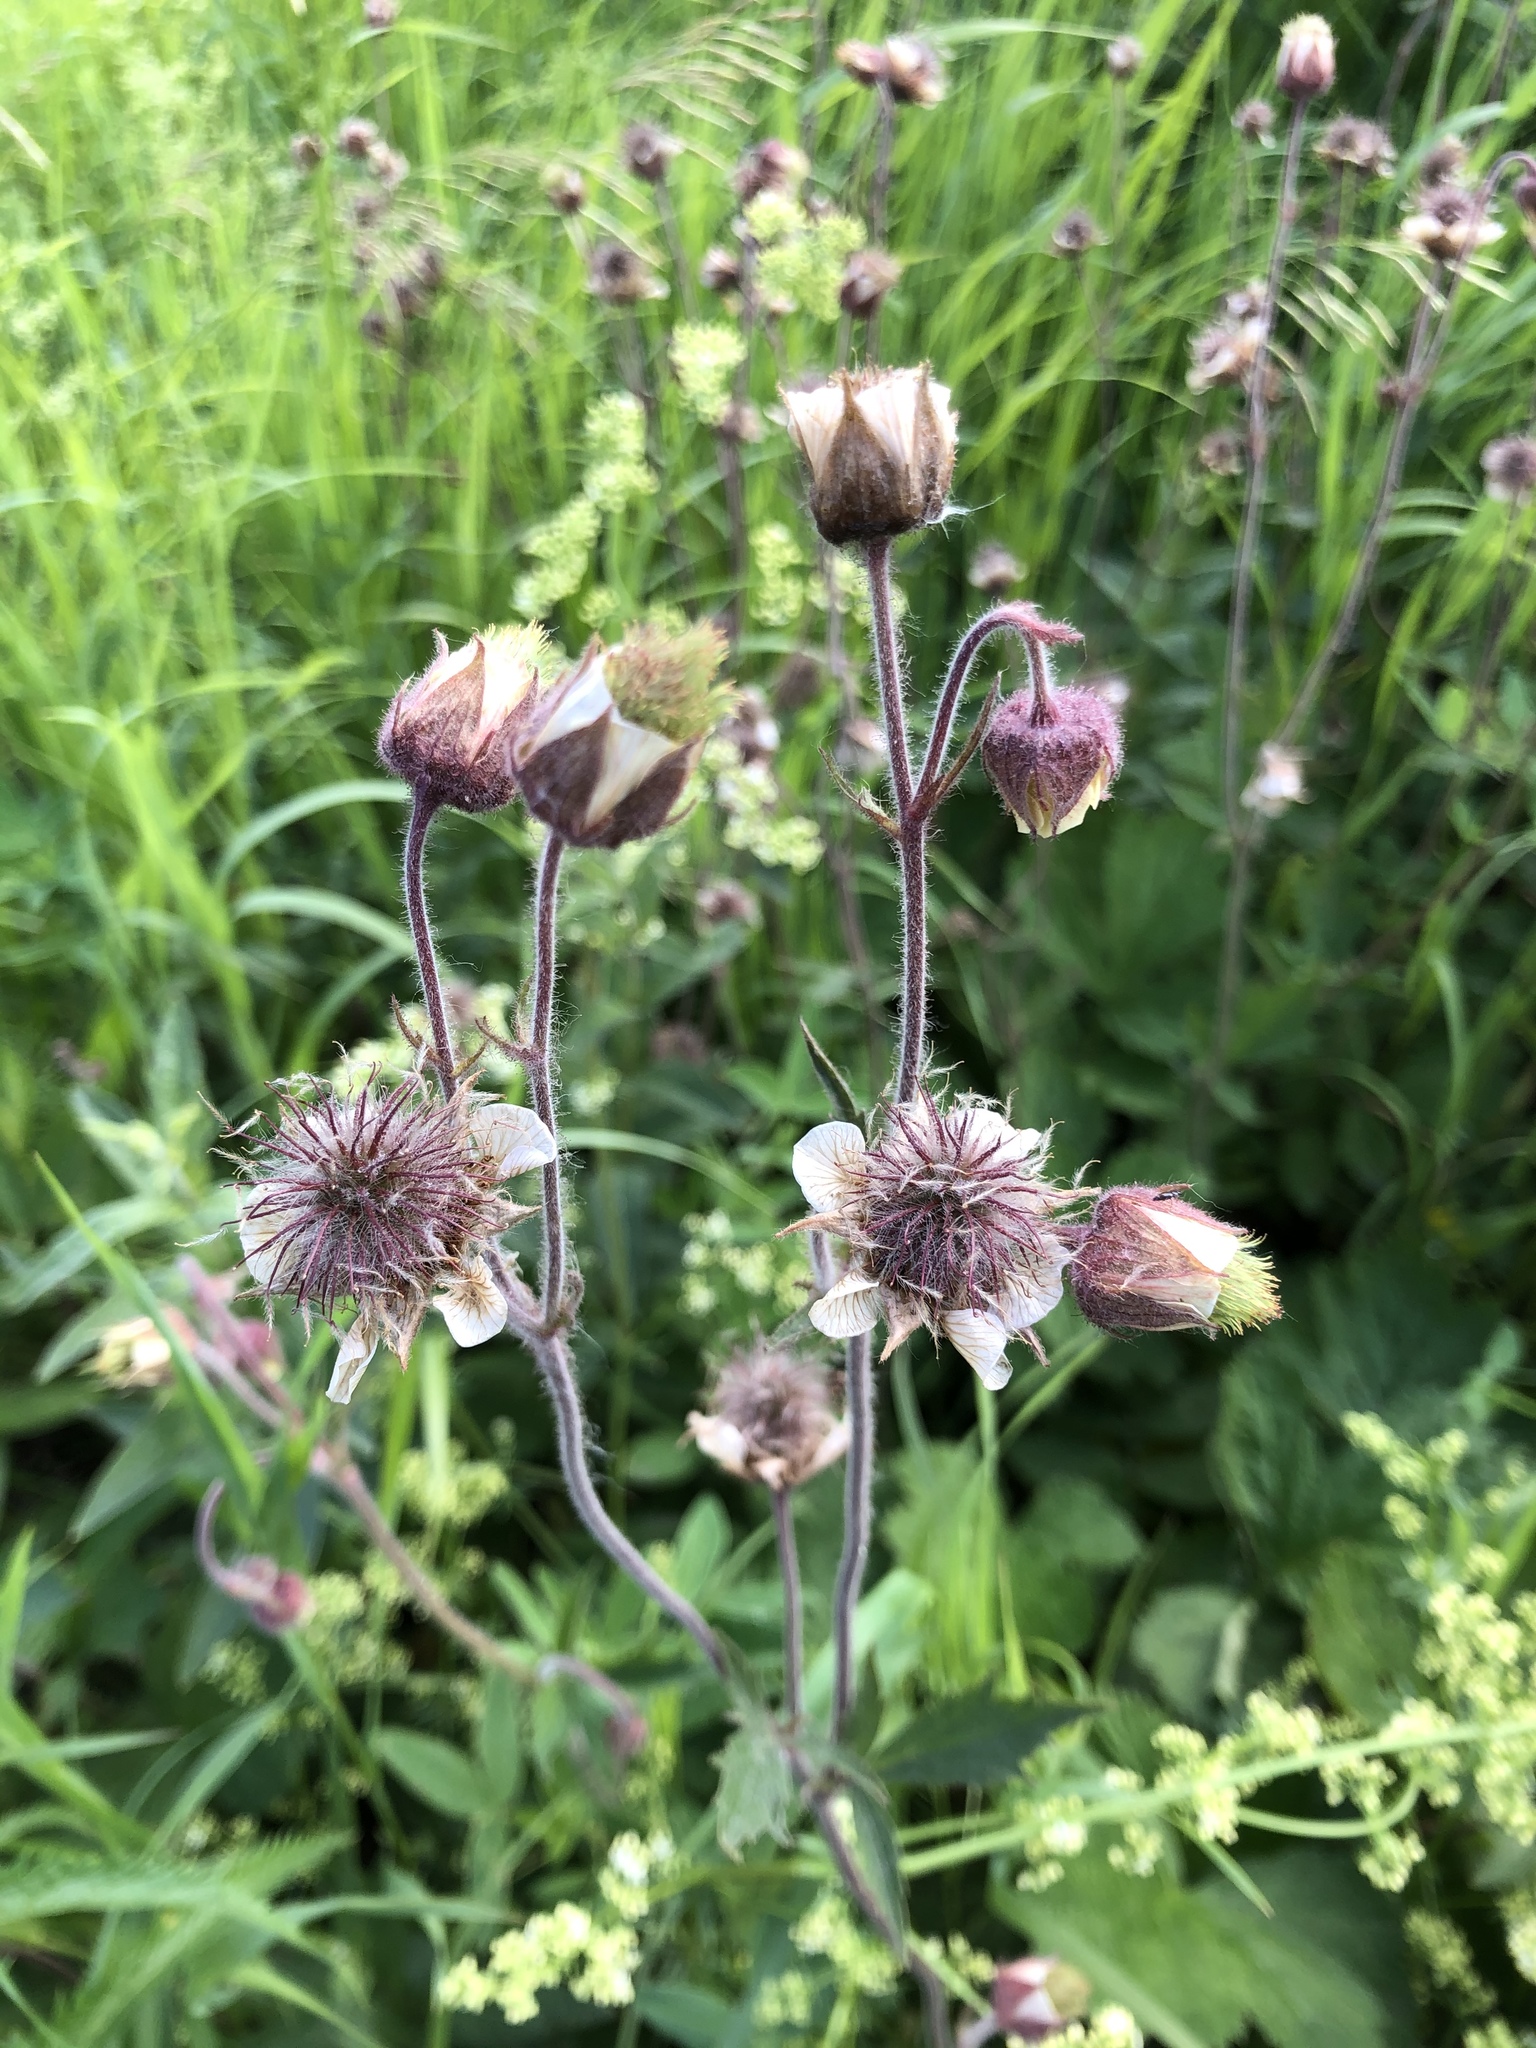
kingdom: Plantae
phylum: Tracheophyta
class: Magnoliopsida
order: Rosales
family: Rosaceae
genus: Geum
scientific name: Geum rivale
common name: Water avens
